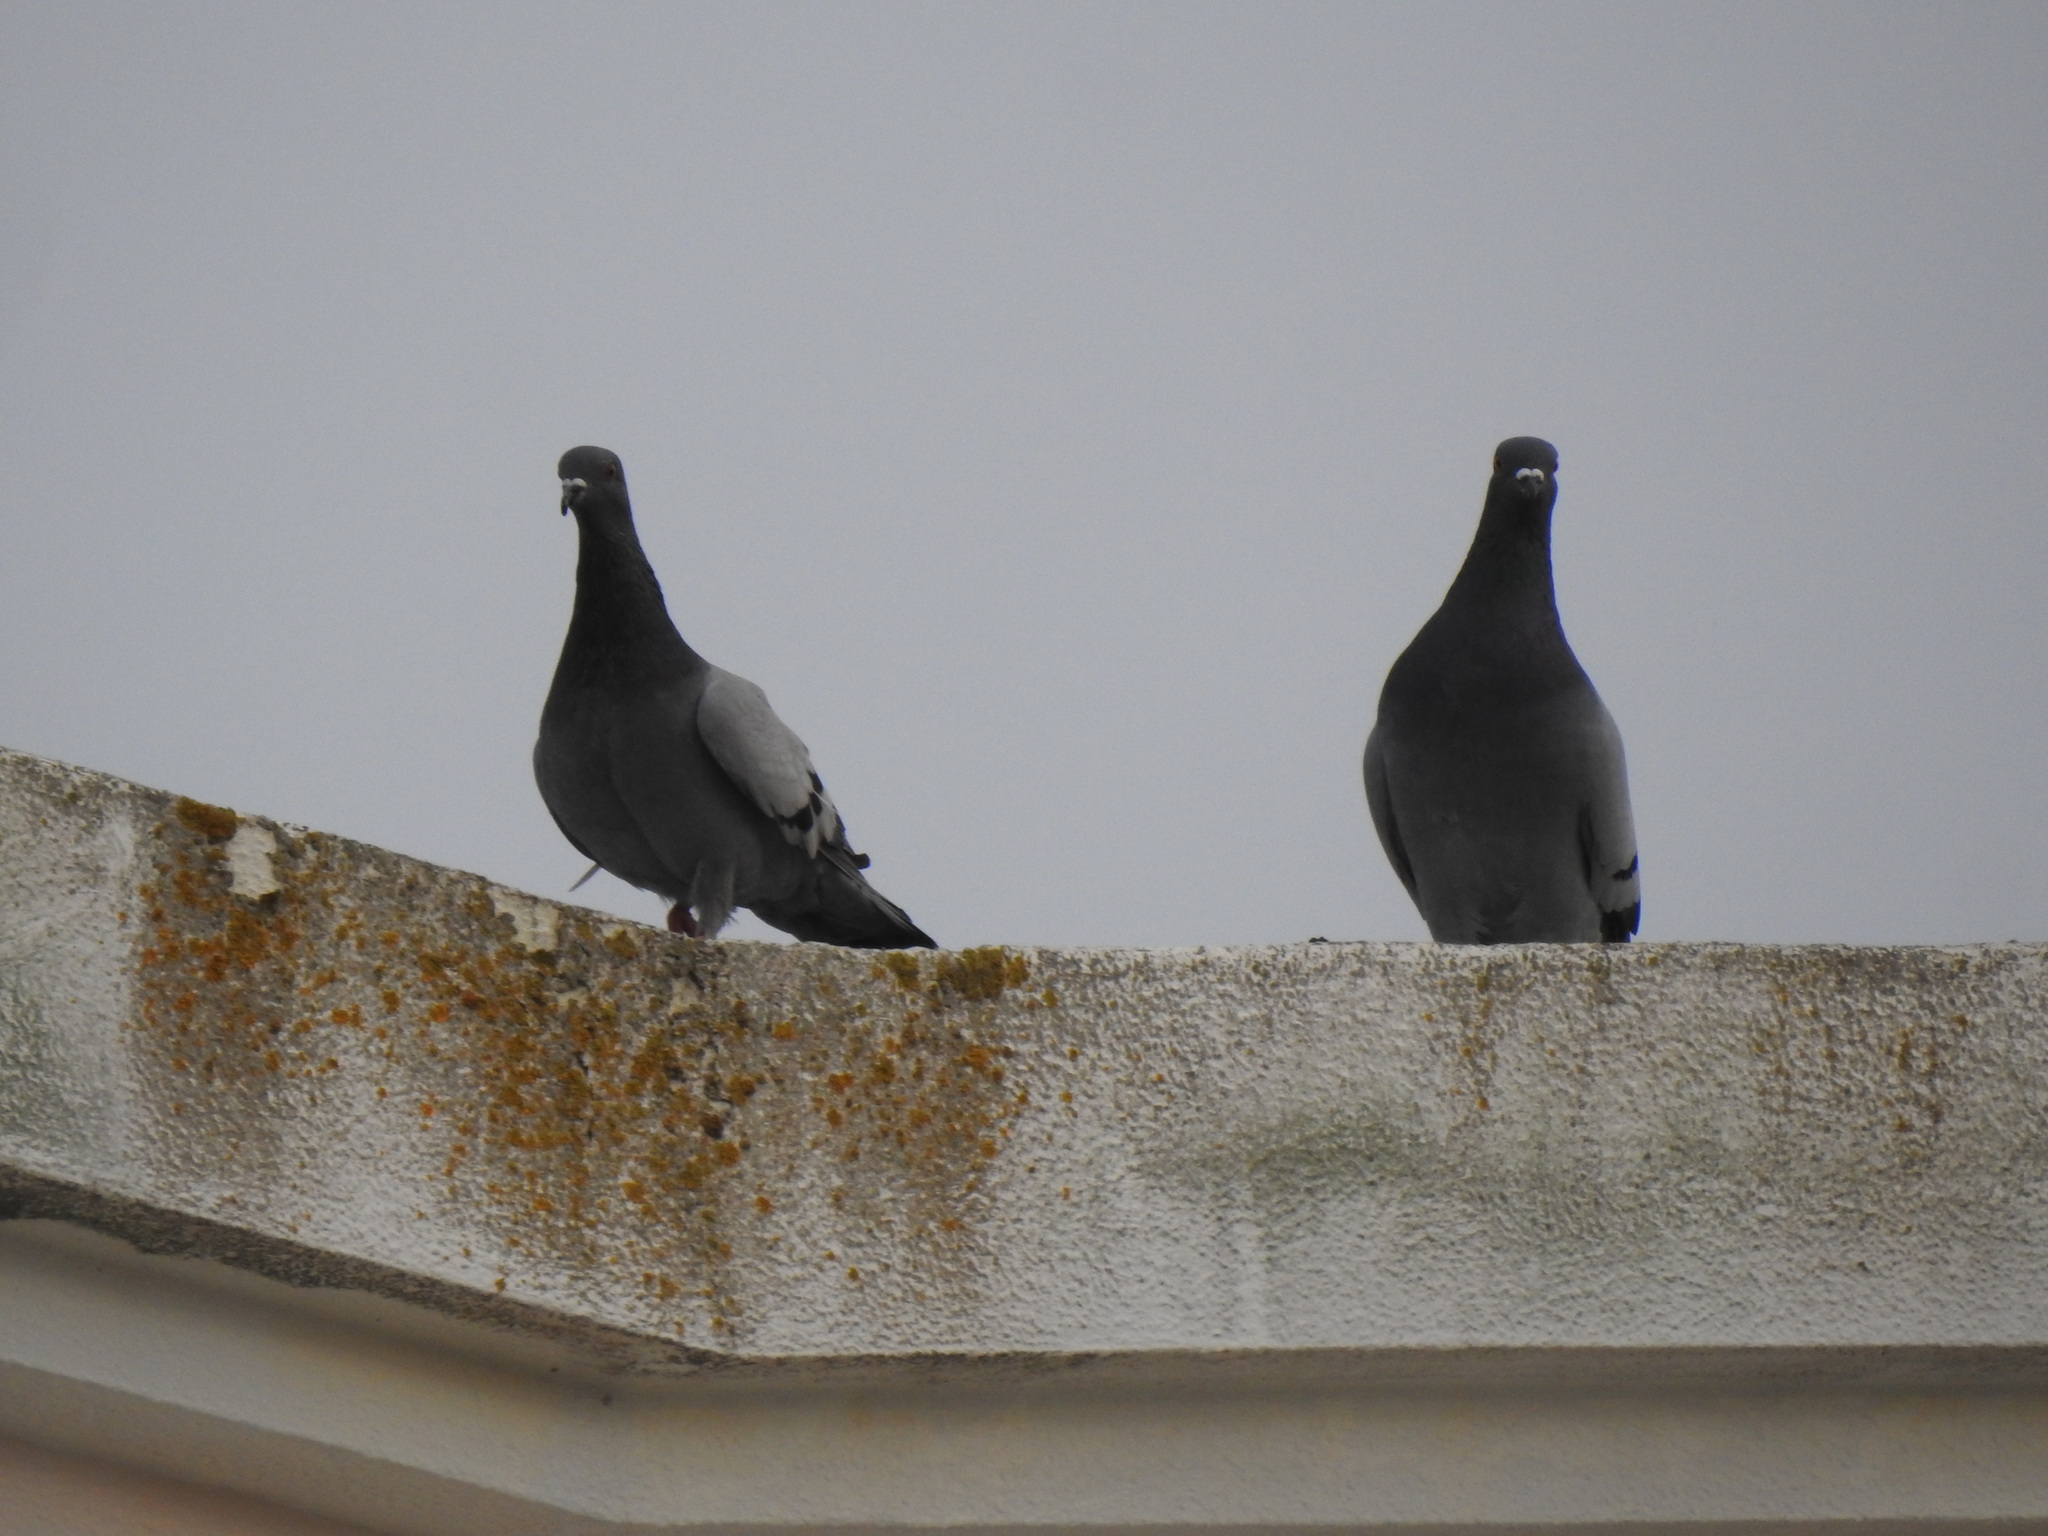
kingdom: Animalia
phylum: Chordata
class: Aves
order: Columbiformes
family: Columbidae
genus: Columba
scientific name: Columba livia
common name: Rock pigeon
